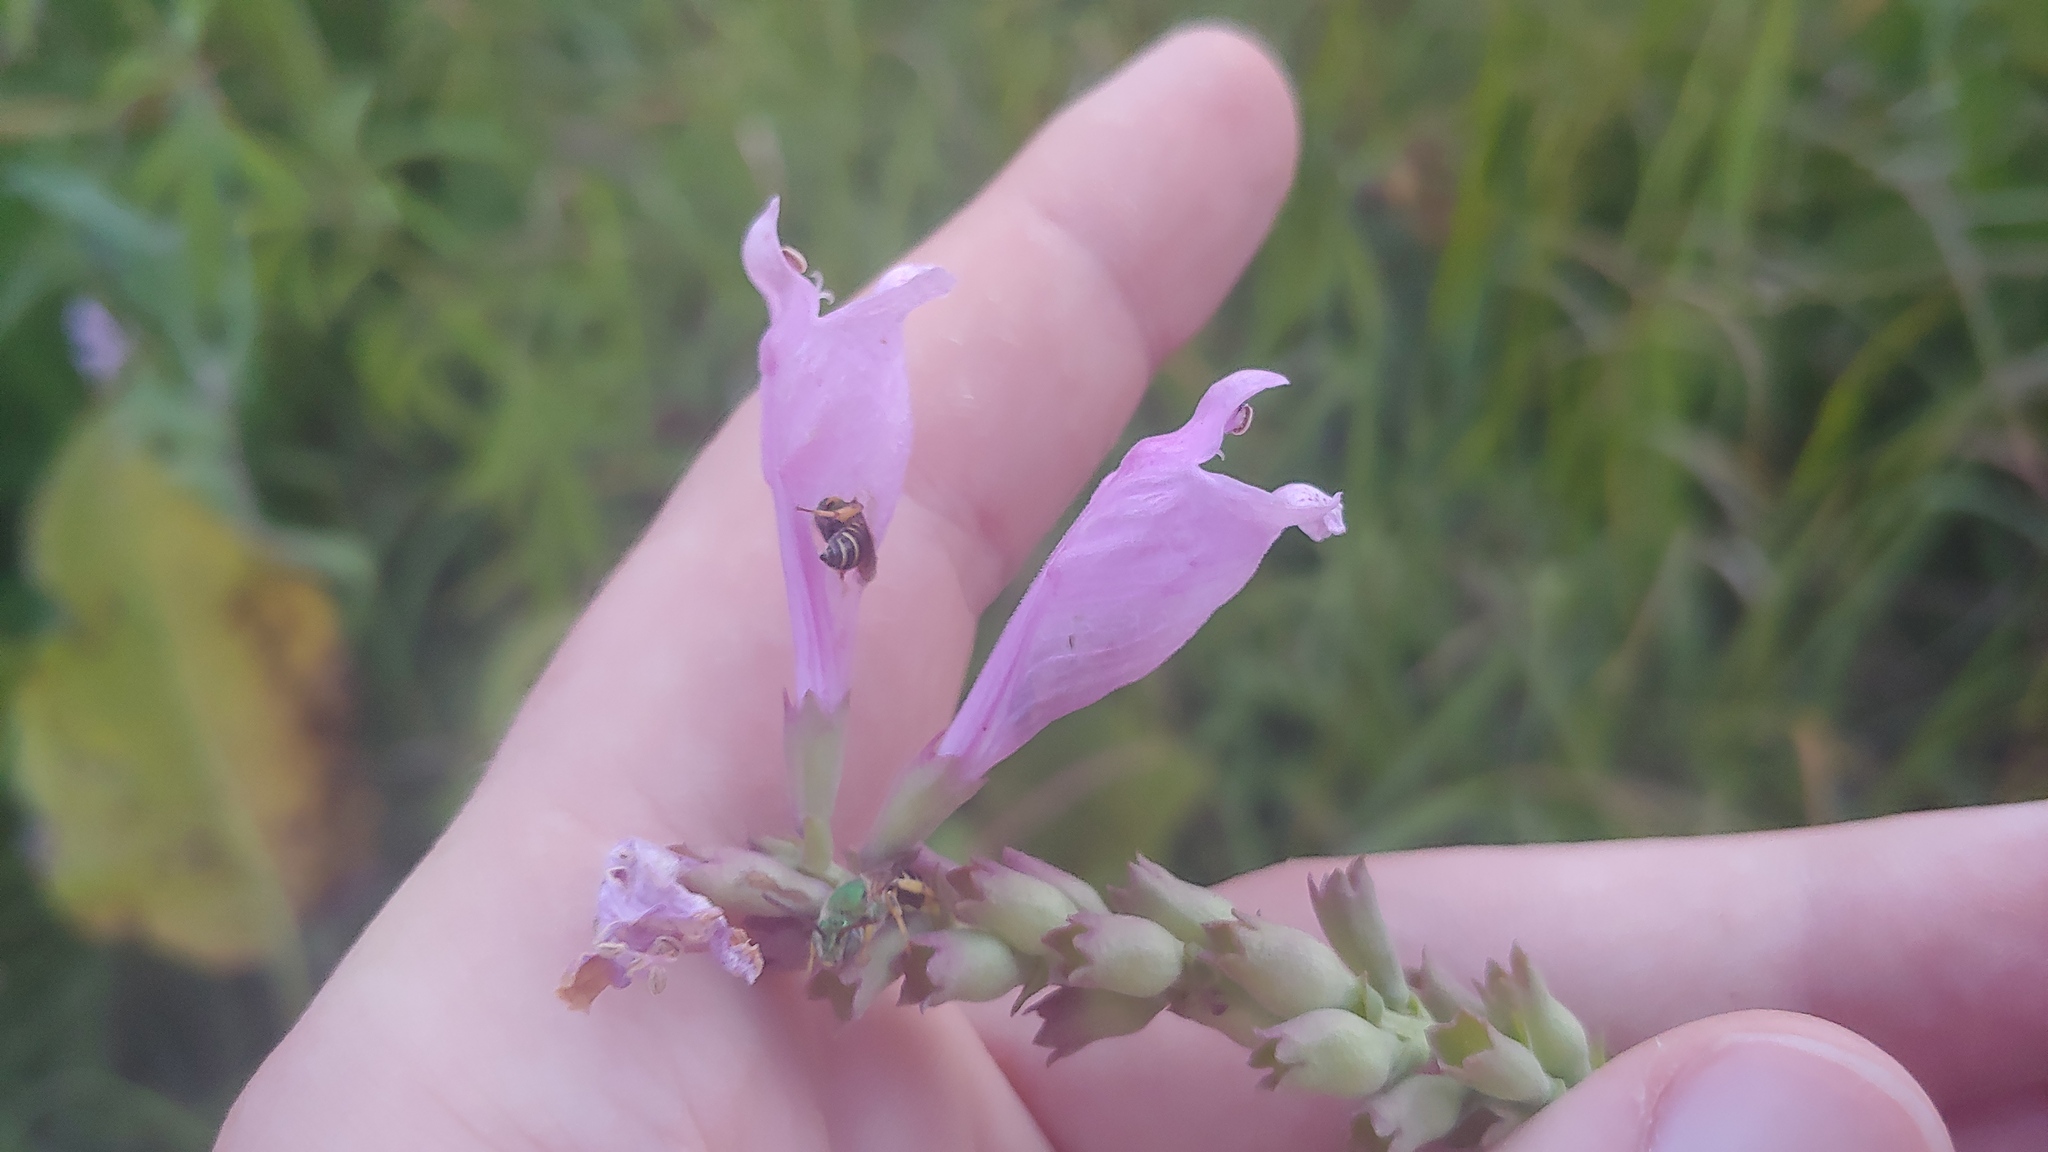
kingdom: Plantae
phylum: Tracheophyta
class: Magnoliopsida
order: Lamiales
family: Lamiaceae
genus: Physostegia
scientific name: Physostegia virginiana
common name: Obedient-plant
